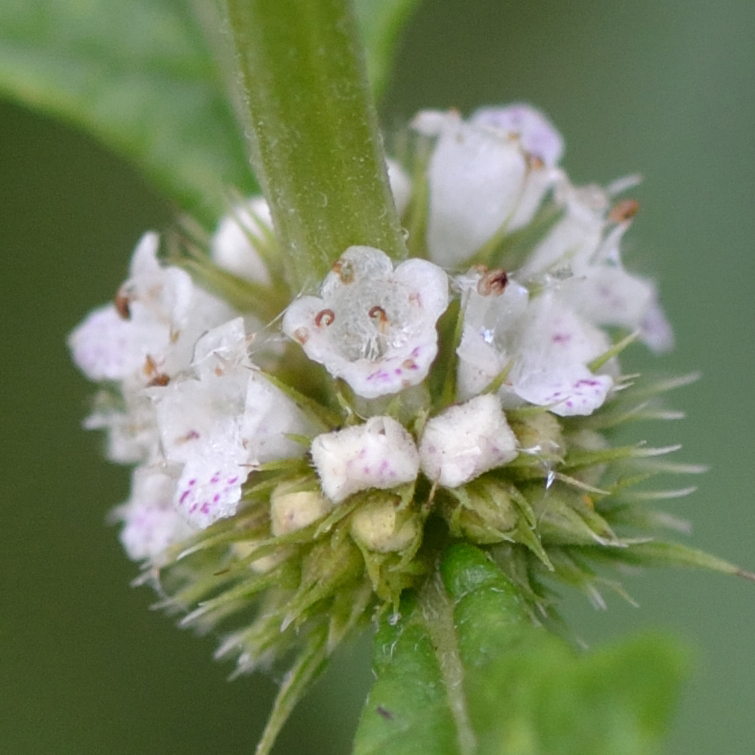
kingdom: Plantae
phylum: Tracheophyta
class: Magnoliopsida
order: Lamiales
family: Lamiaceae
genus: Lycopus
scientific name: Lycopus europaeus
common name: European bugleweed
